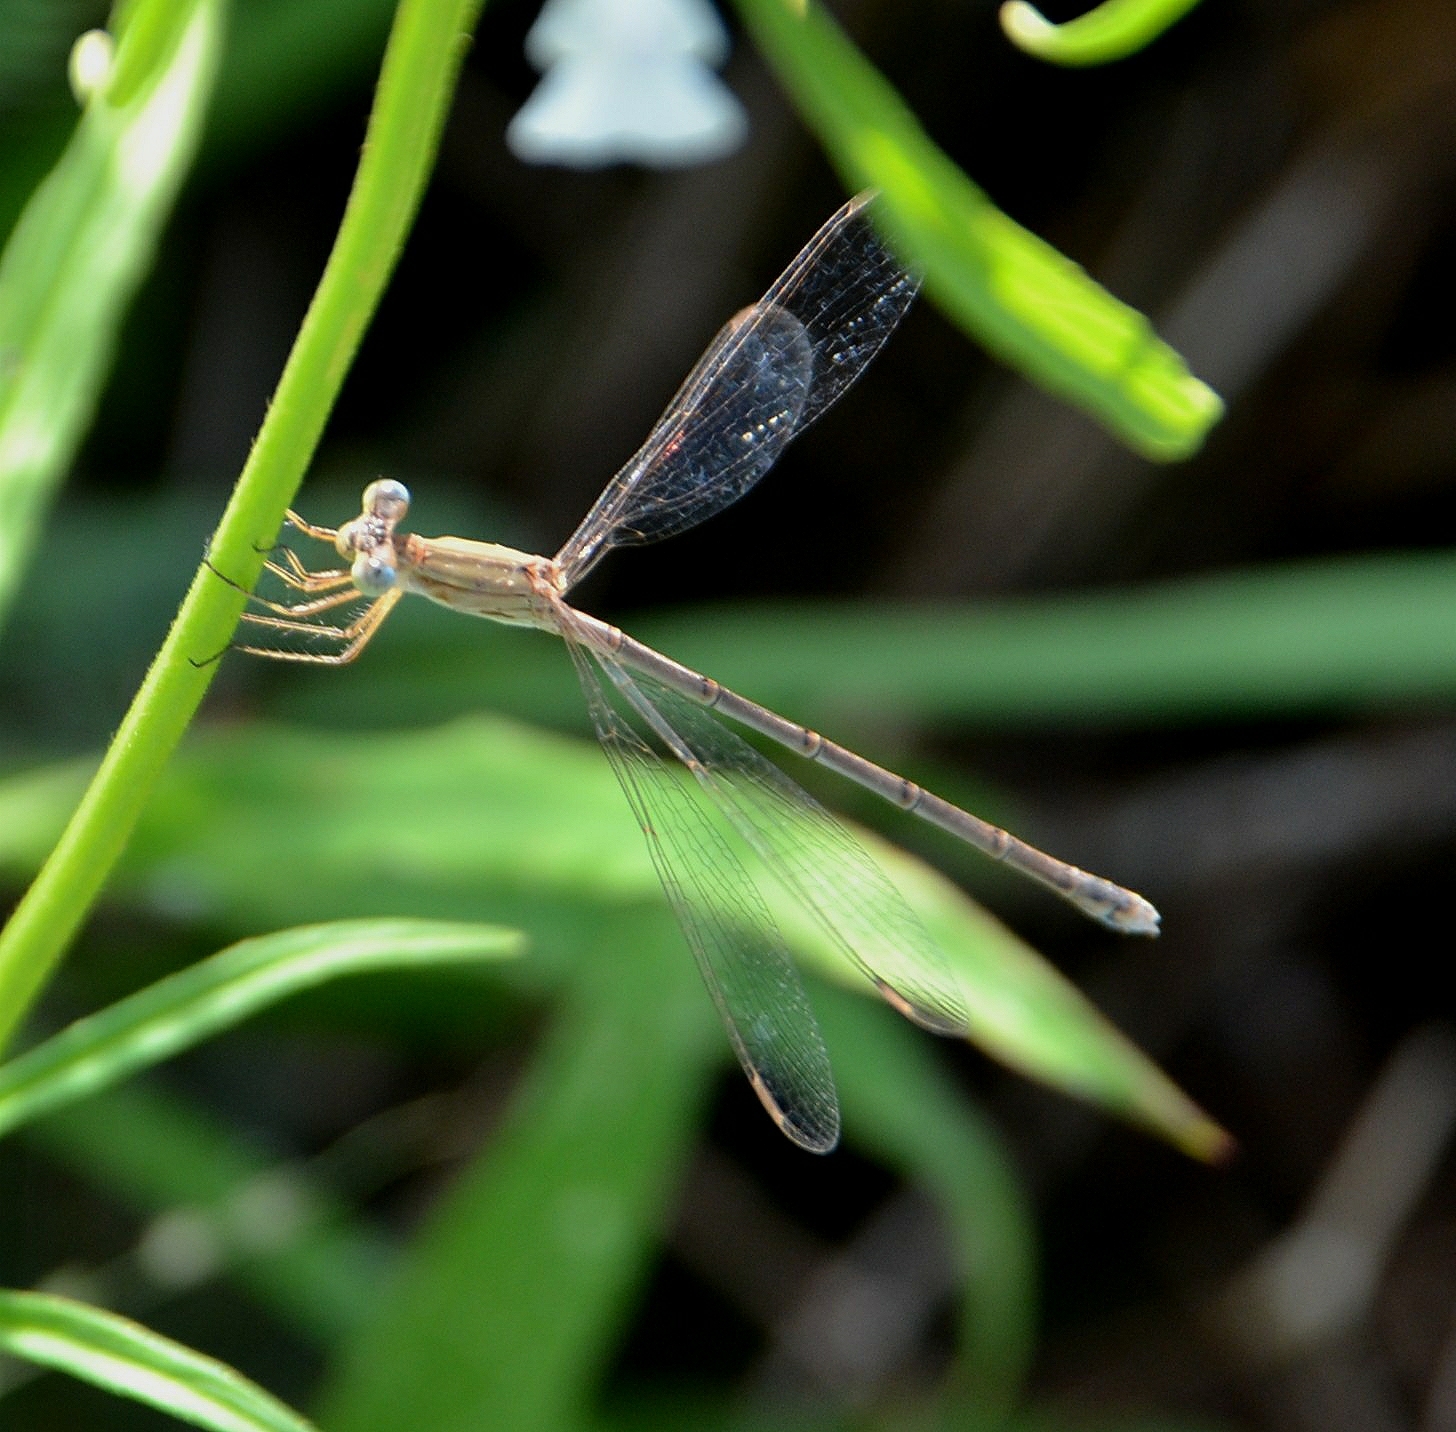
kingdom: Animalia
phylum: Arthropoda
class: Insecta
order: Odonata
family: Lestidae
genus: Lestes
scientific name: Lestes concinnus
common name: Dusky spreadwing
